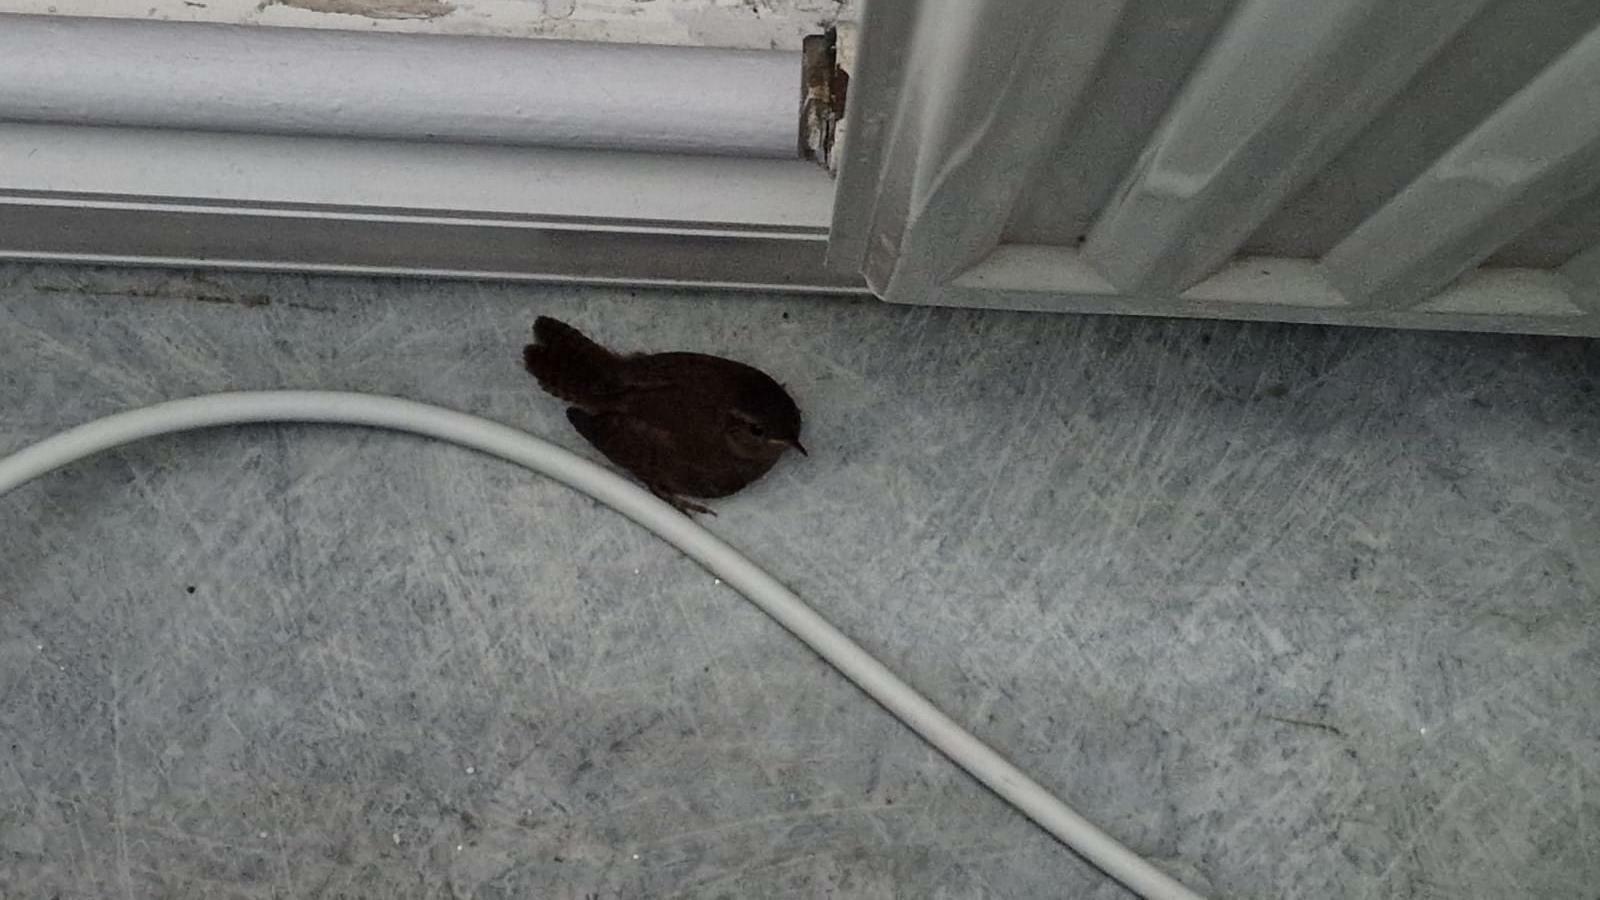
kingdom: Animalia
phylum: Chordata
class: Aves
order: Passeriformes
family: Troglodytidae
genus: Troglodytes
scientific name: Troglodytes troglodytes
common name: Eurasian wren
